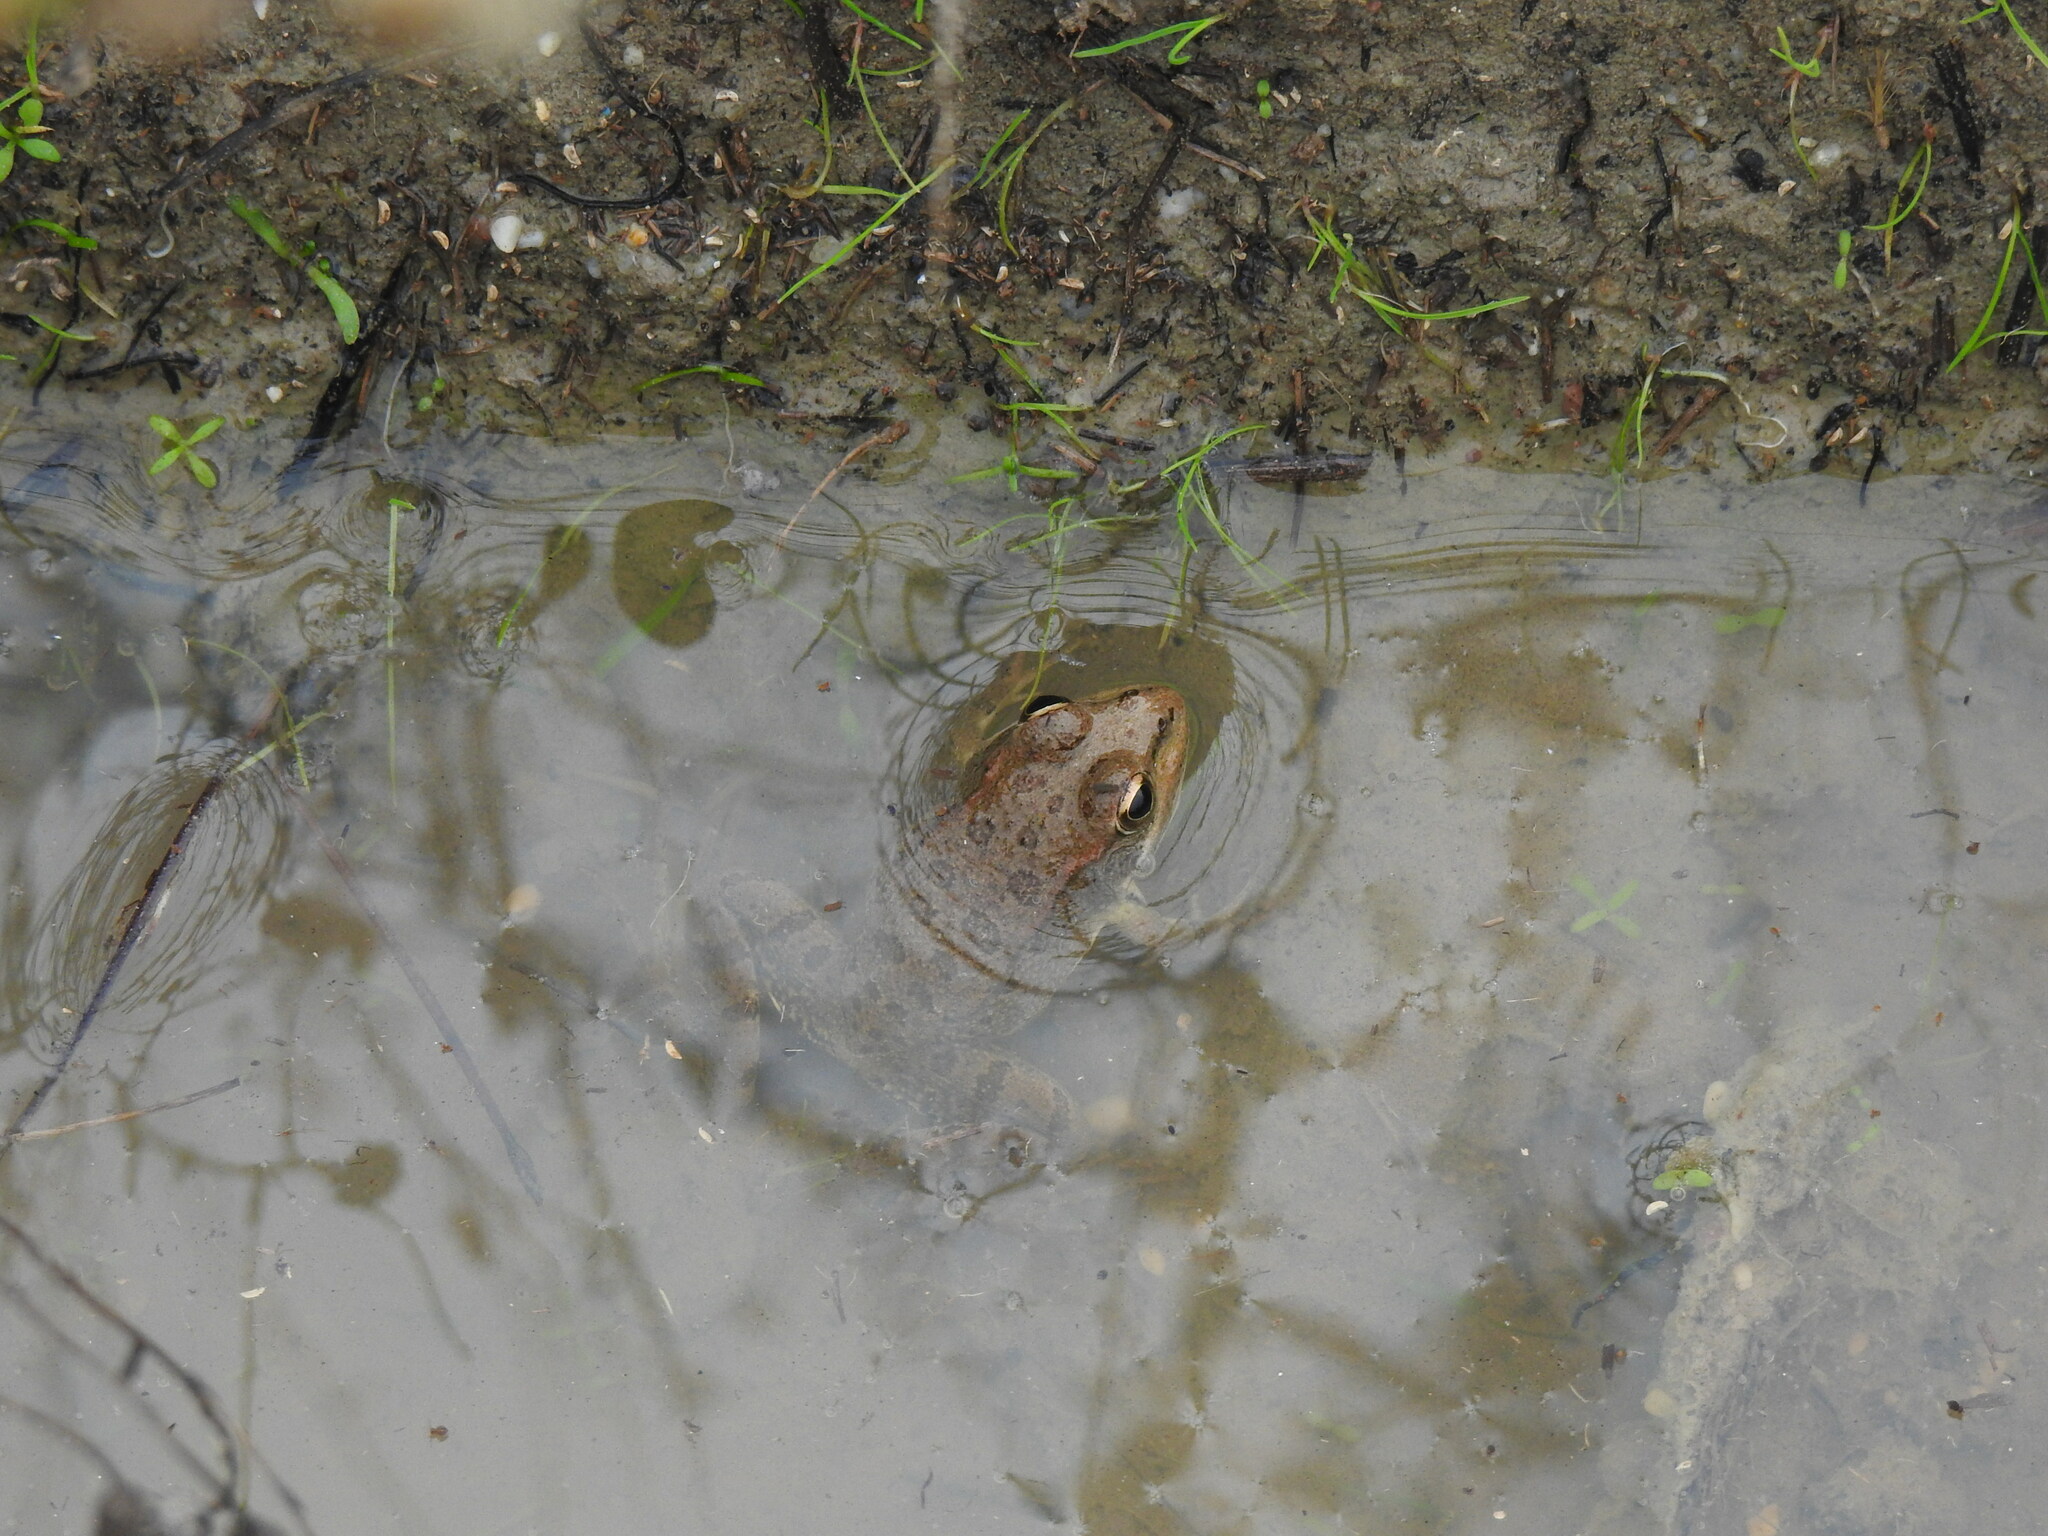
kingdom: Animalia
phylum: Chordata
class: Amphibia
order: Anura
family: Ranidae
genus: Pelophylax
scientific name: Pelophylax perezi
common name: Perez's frog
